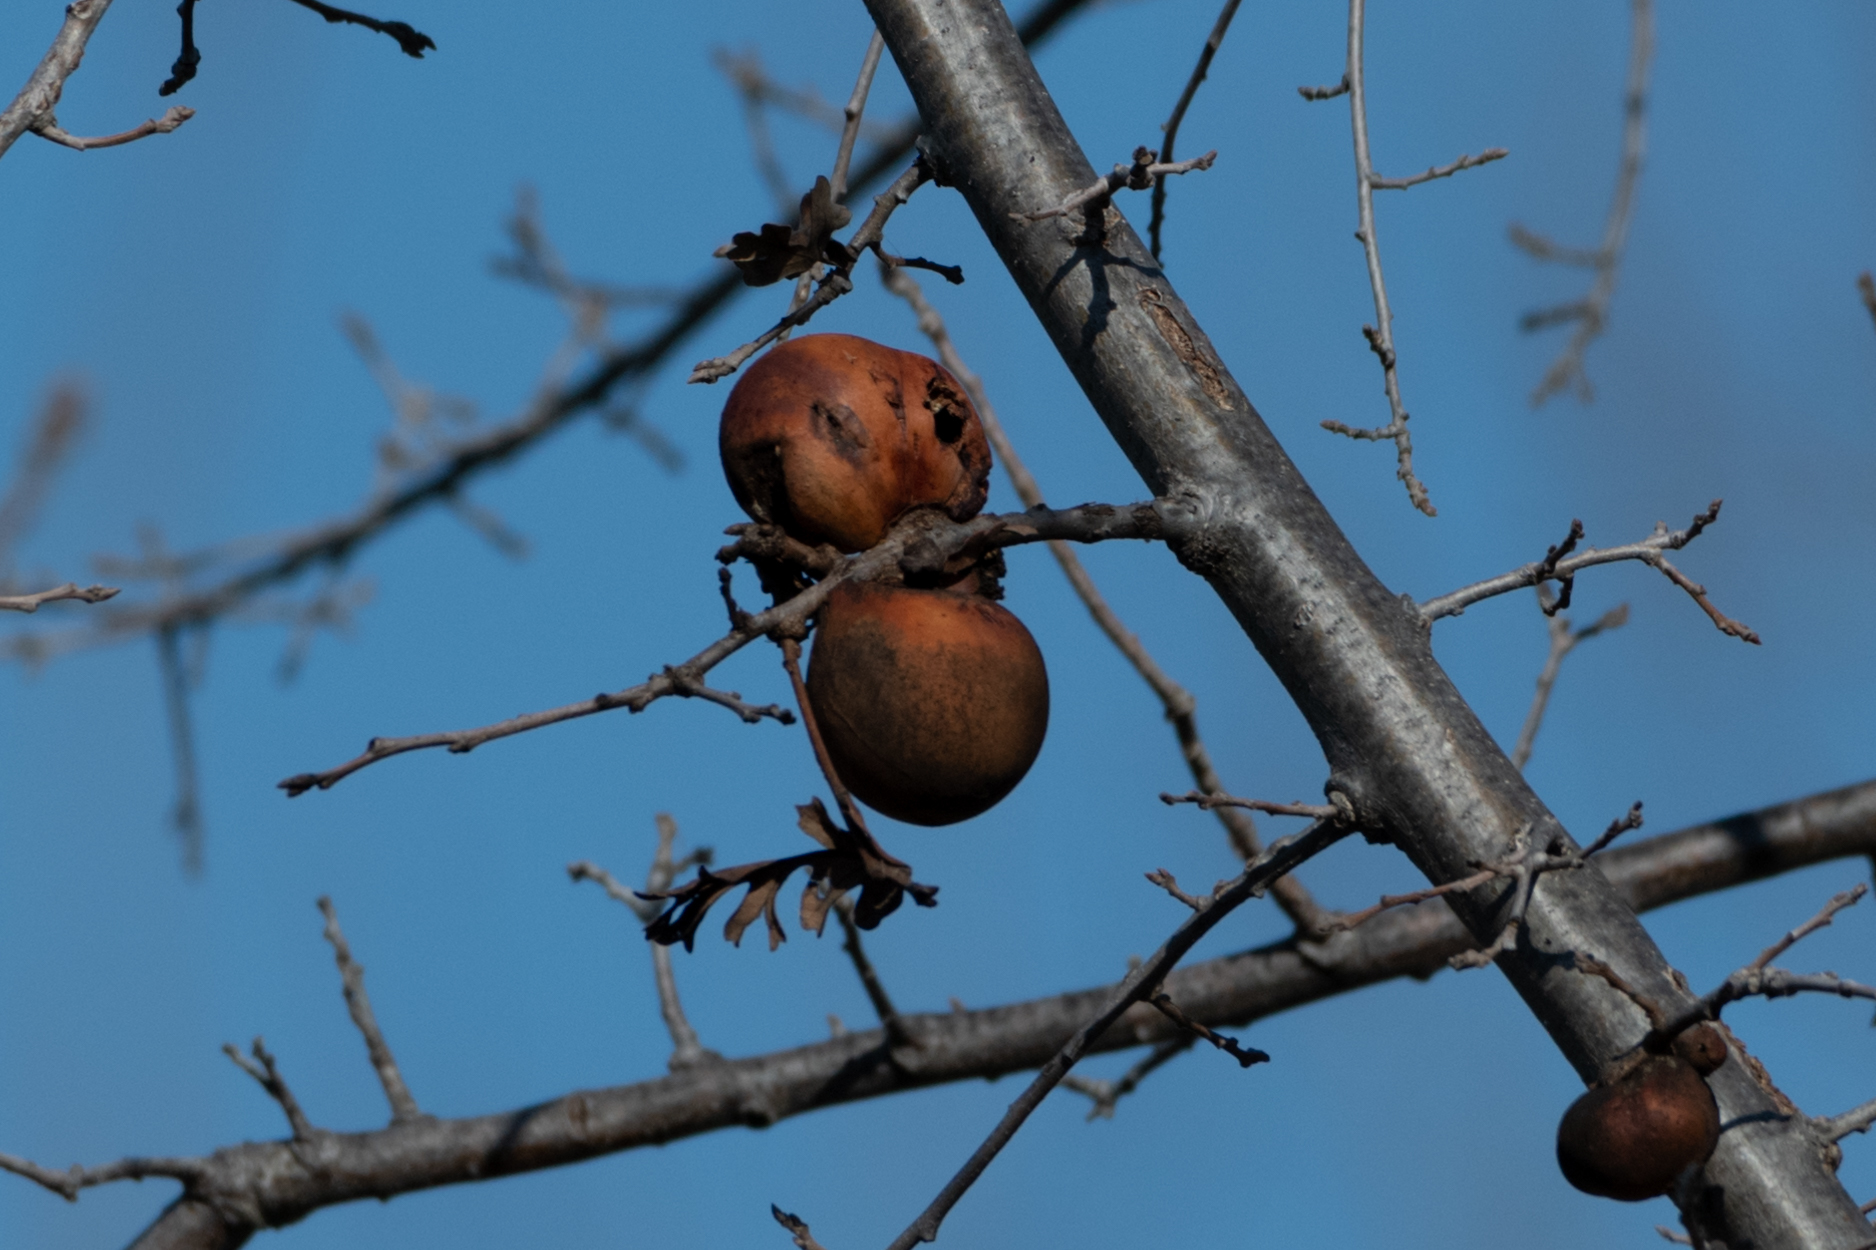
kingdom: Animalia
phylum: Arthropoda
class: Insecta
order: Hymenoptera
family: Cynipidae
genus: Andricus
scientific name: Andricus quercuscalifornicus
